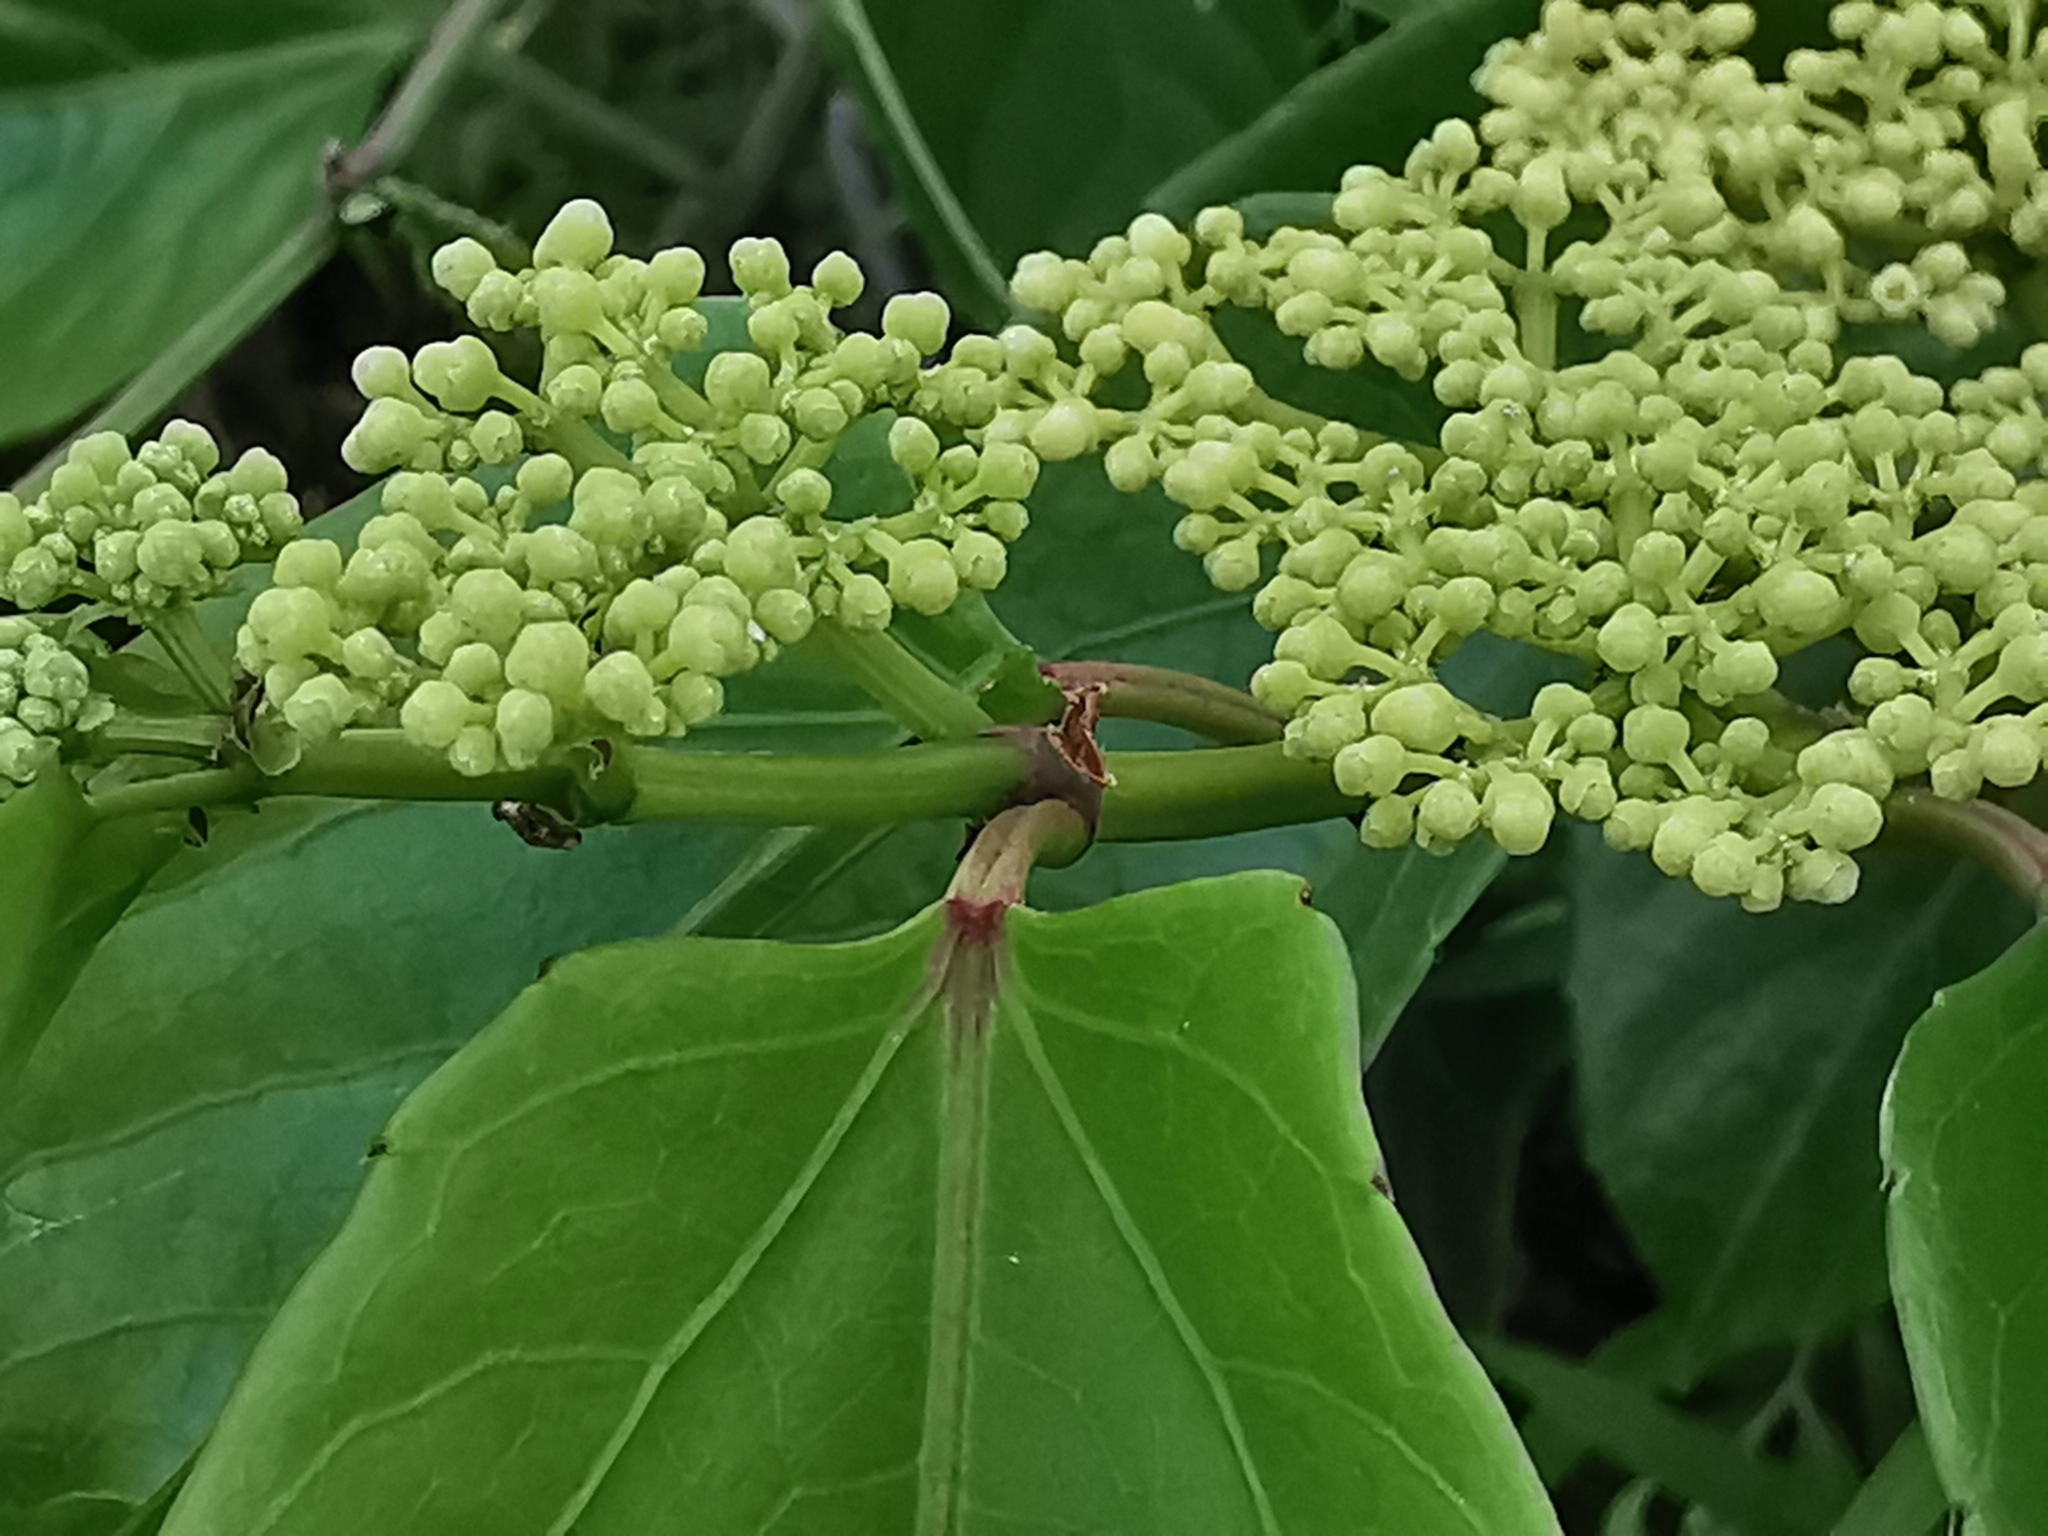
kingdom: Plantae
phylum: Tracheophyta
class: Magnoliopsida
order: Vitales
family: Vitaceae
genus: Cissus
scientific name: Cissus verticillata
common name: Princess vine
